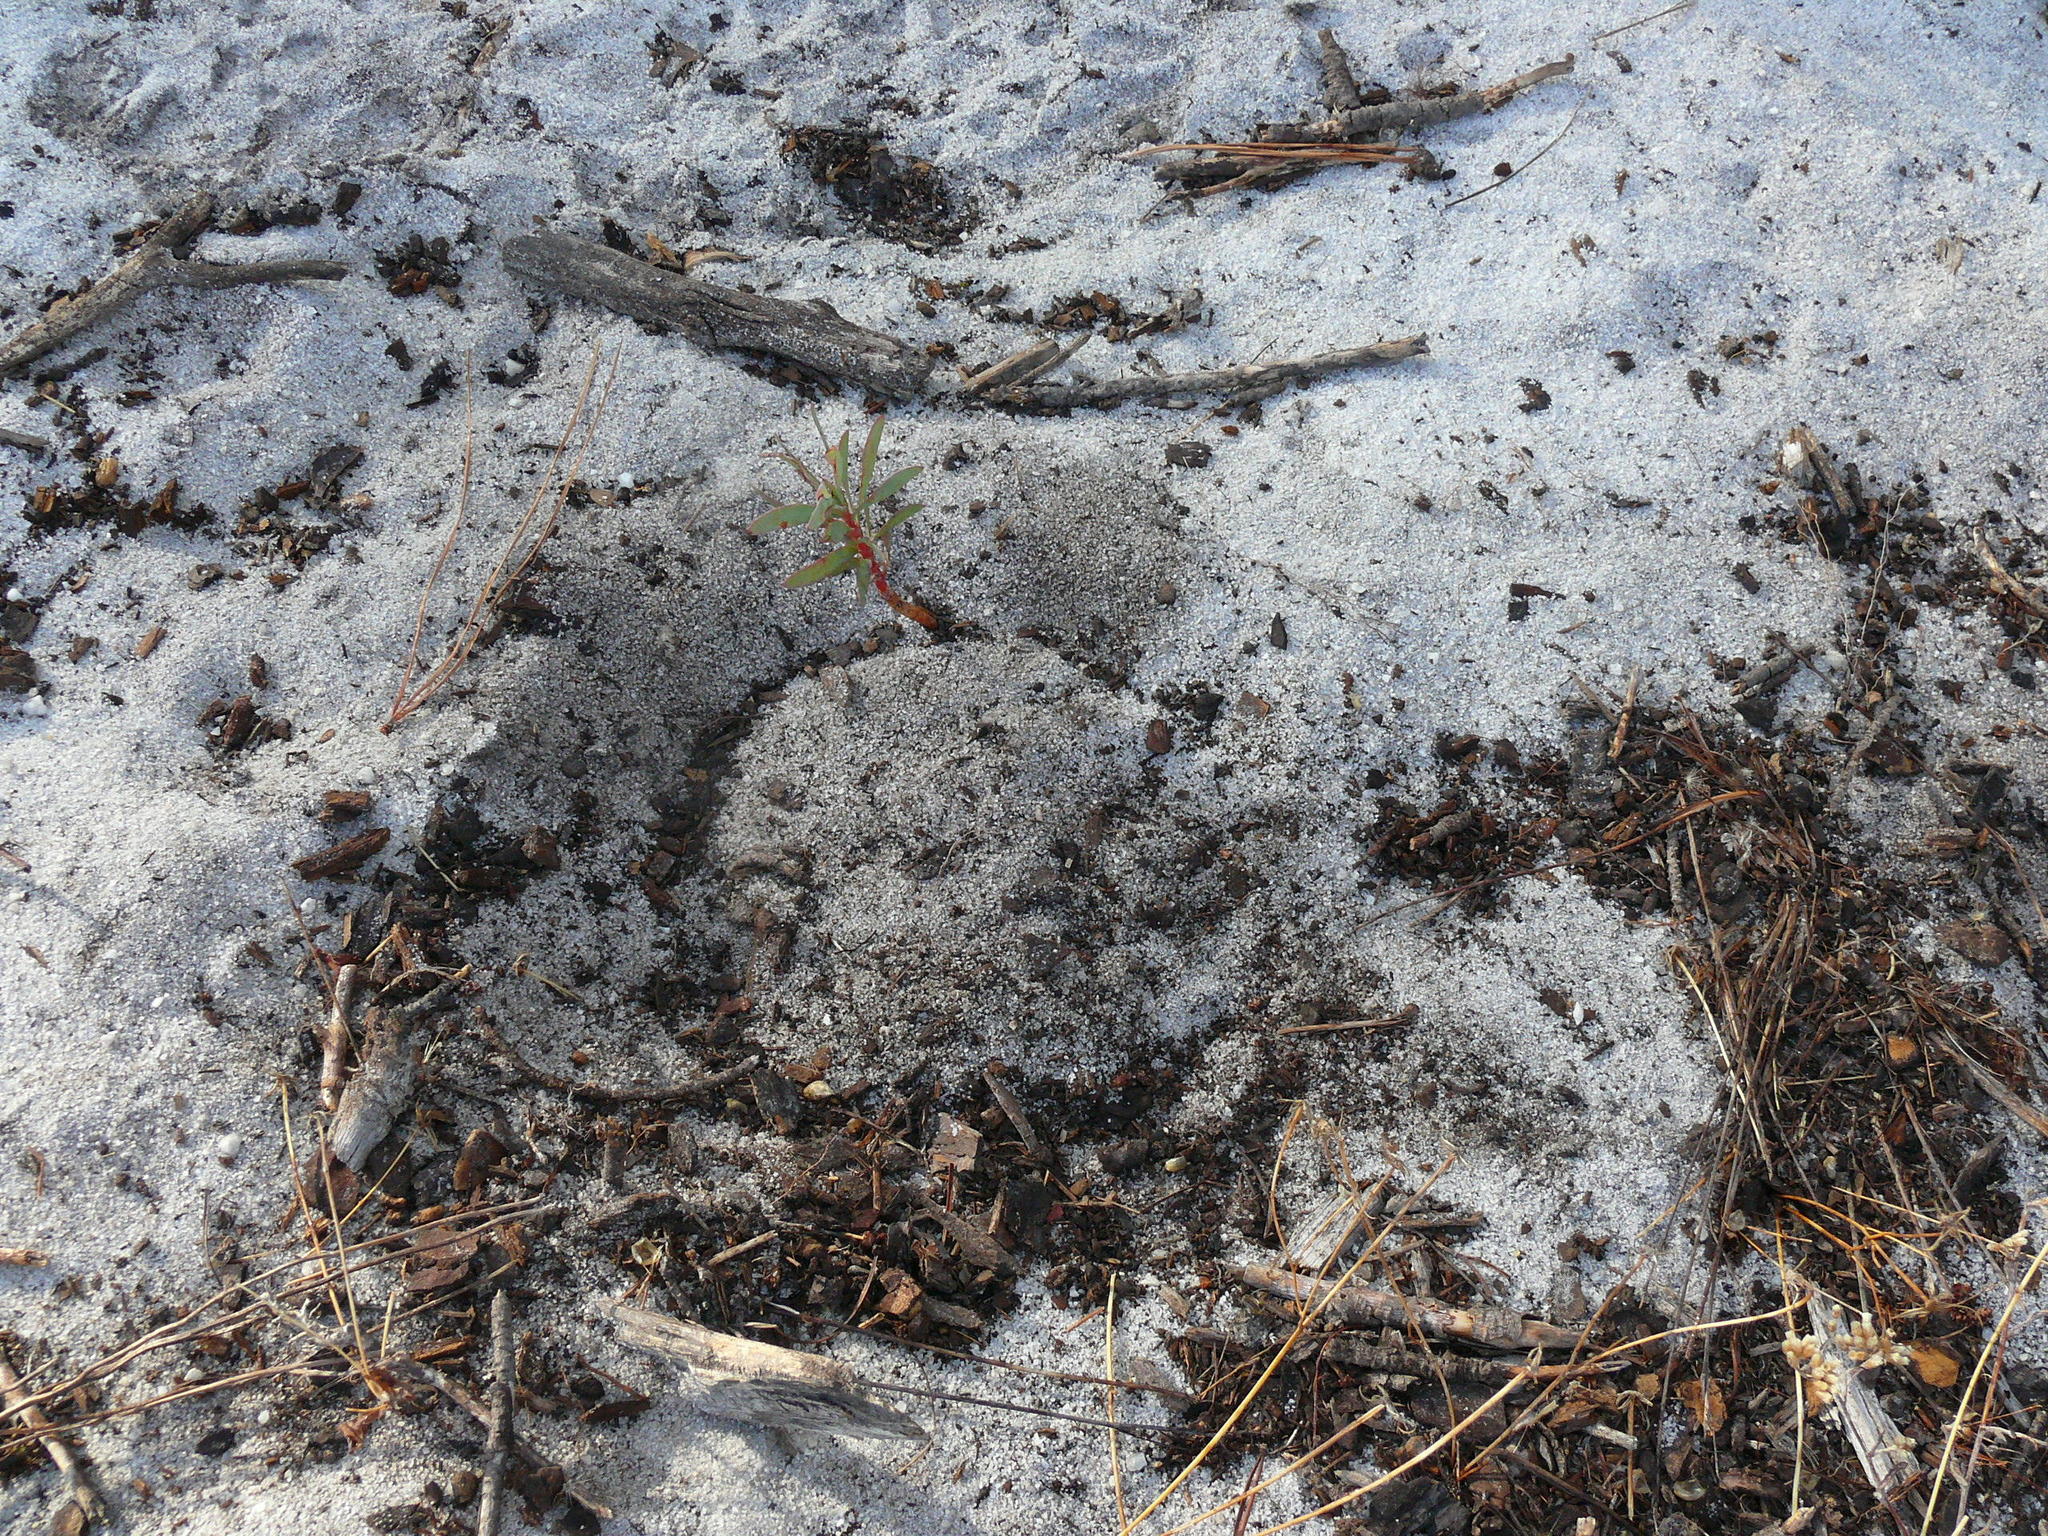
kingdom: Plantae
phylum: Tracheophyta
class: Magnoliopsida
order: Proteales
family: Proteaceae
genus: Protea
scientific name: Protea scolymocephala
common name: Thistle sugarbush
